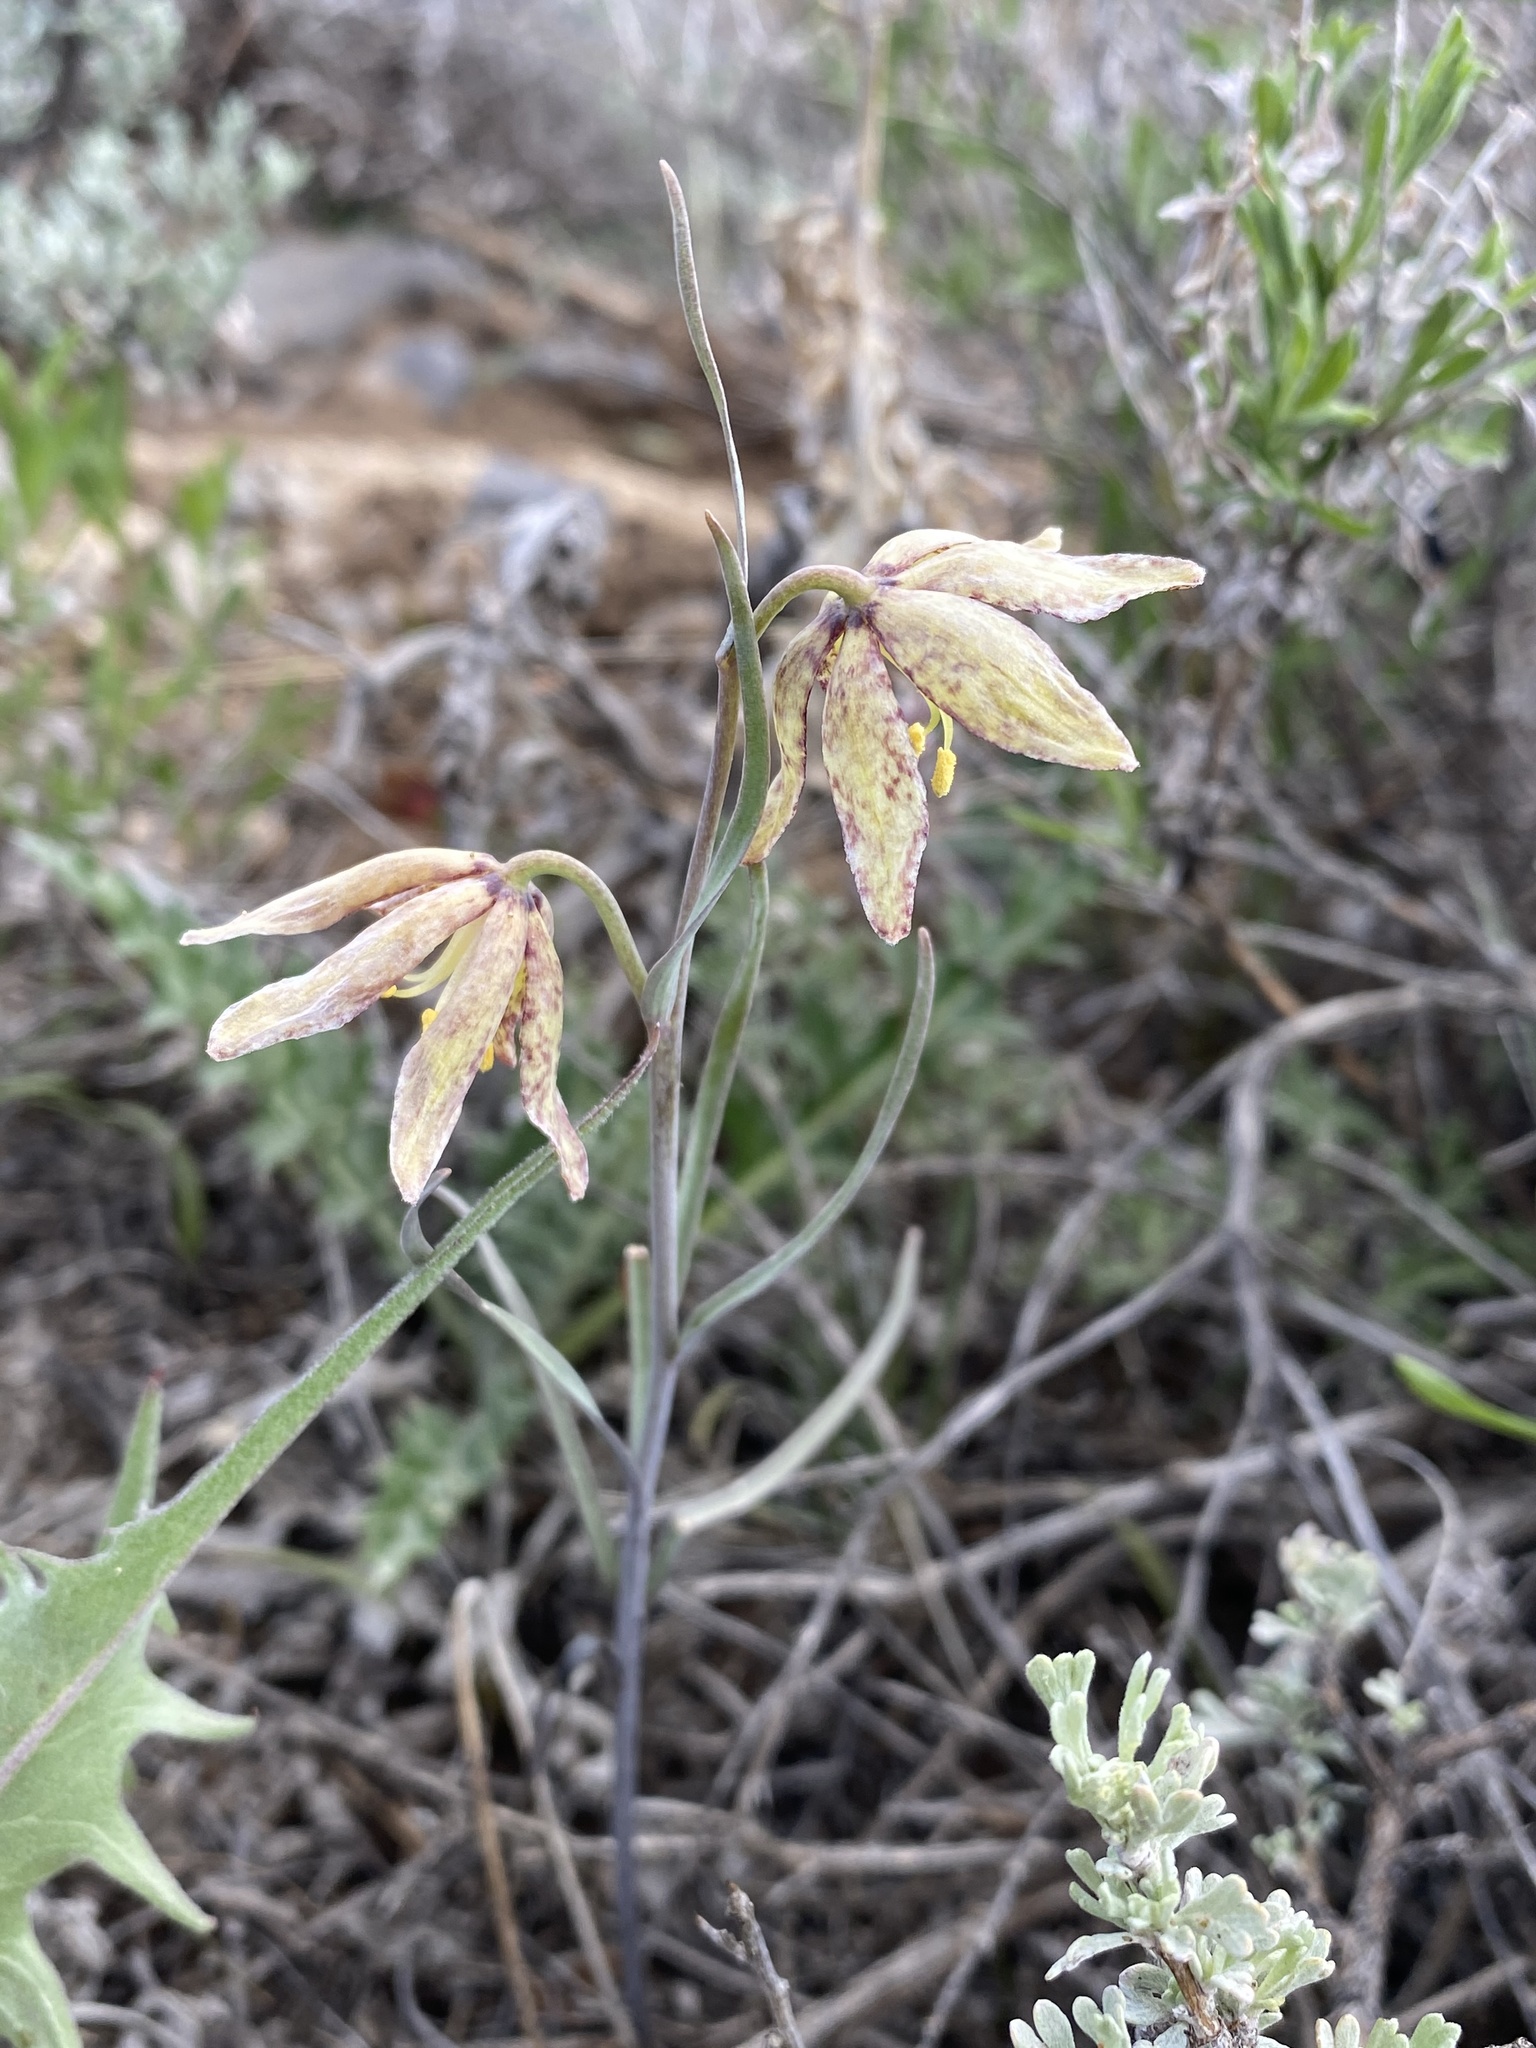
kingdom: Plantae
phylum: Tracheophyta
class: Liliopsida
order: Liliales
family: Liliaceae
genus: Fritillaria
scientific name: Fritillaria atropurpurea
